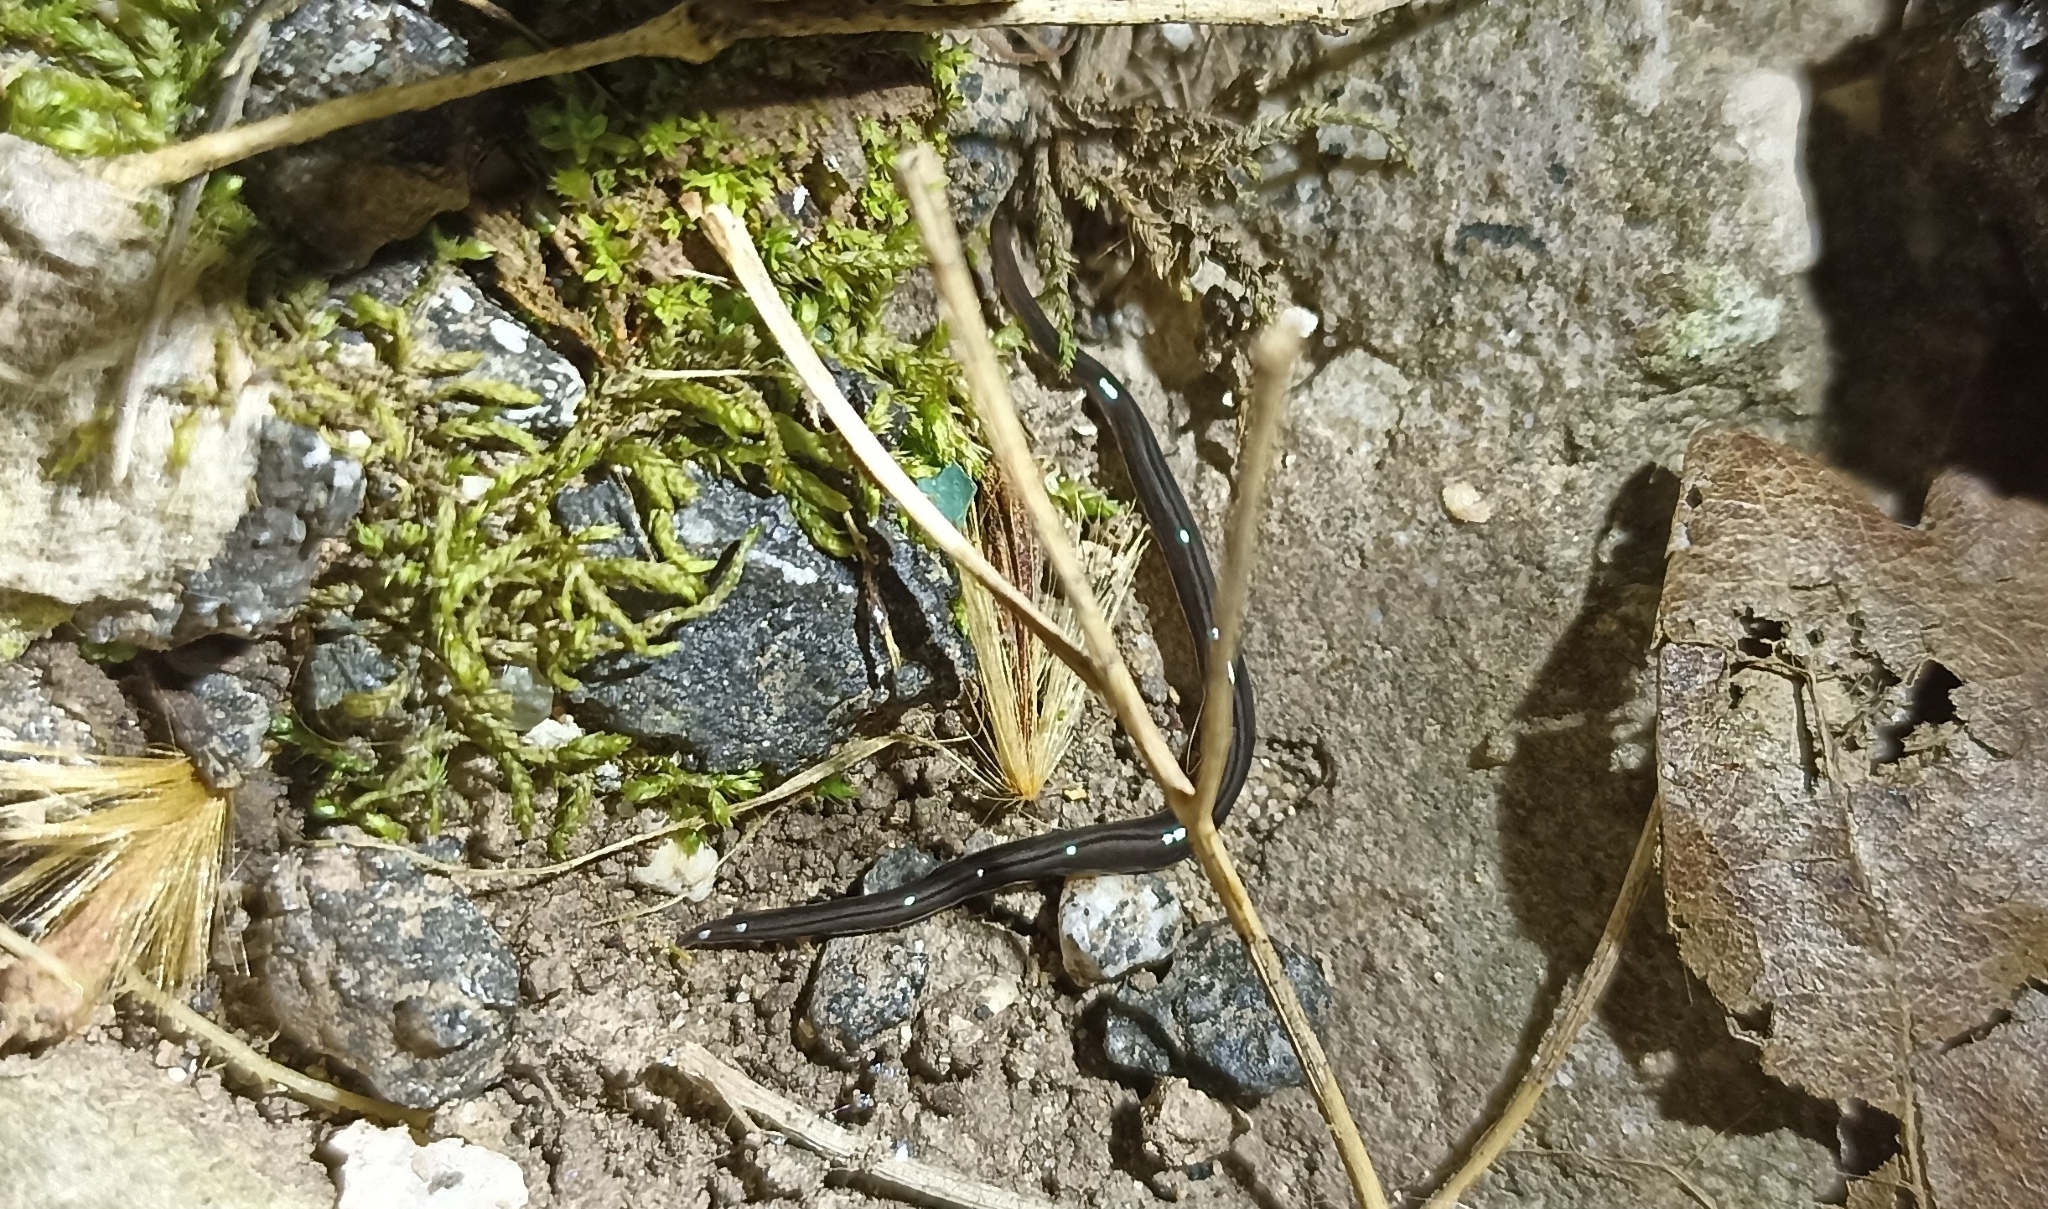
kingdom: Animalia
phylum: Platyhelminthes
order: Tricladida
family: Geoplanidae
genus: Parakontikia
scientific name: Parakontikia ventrolineata
